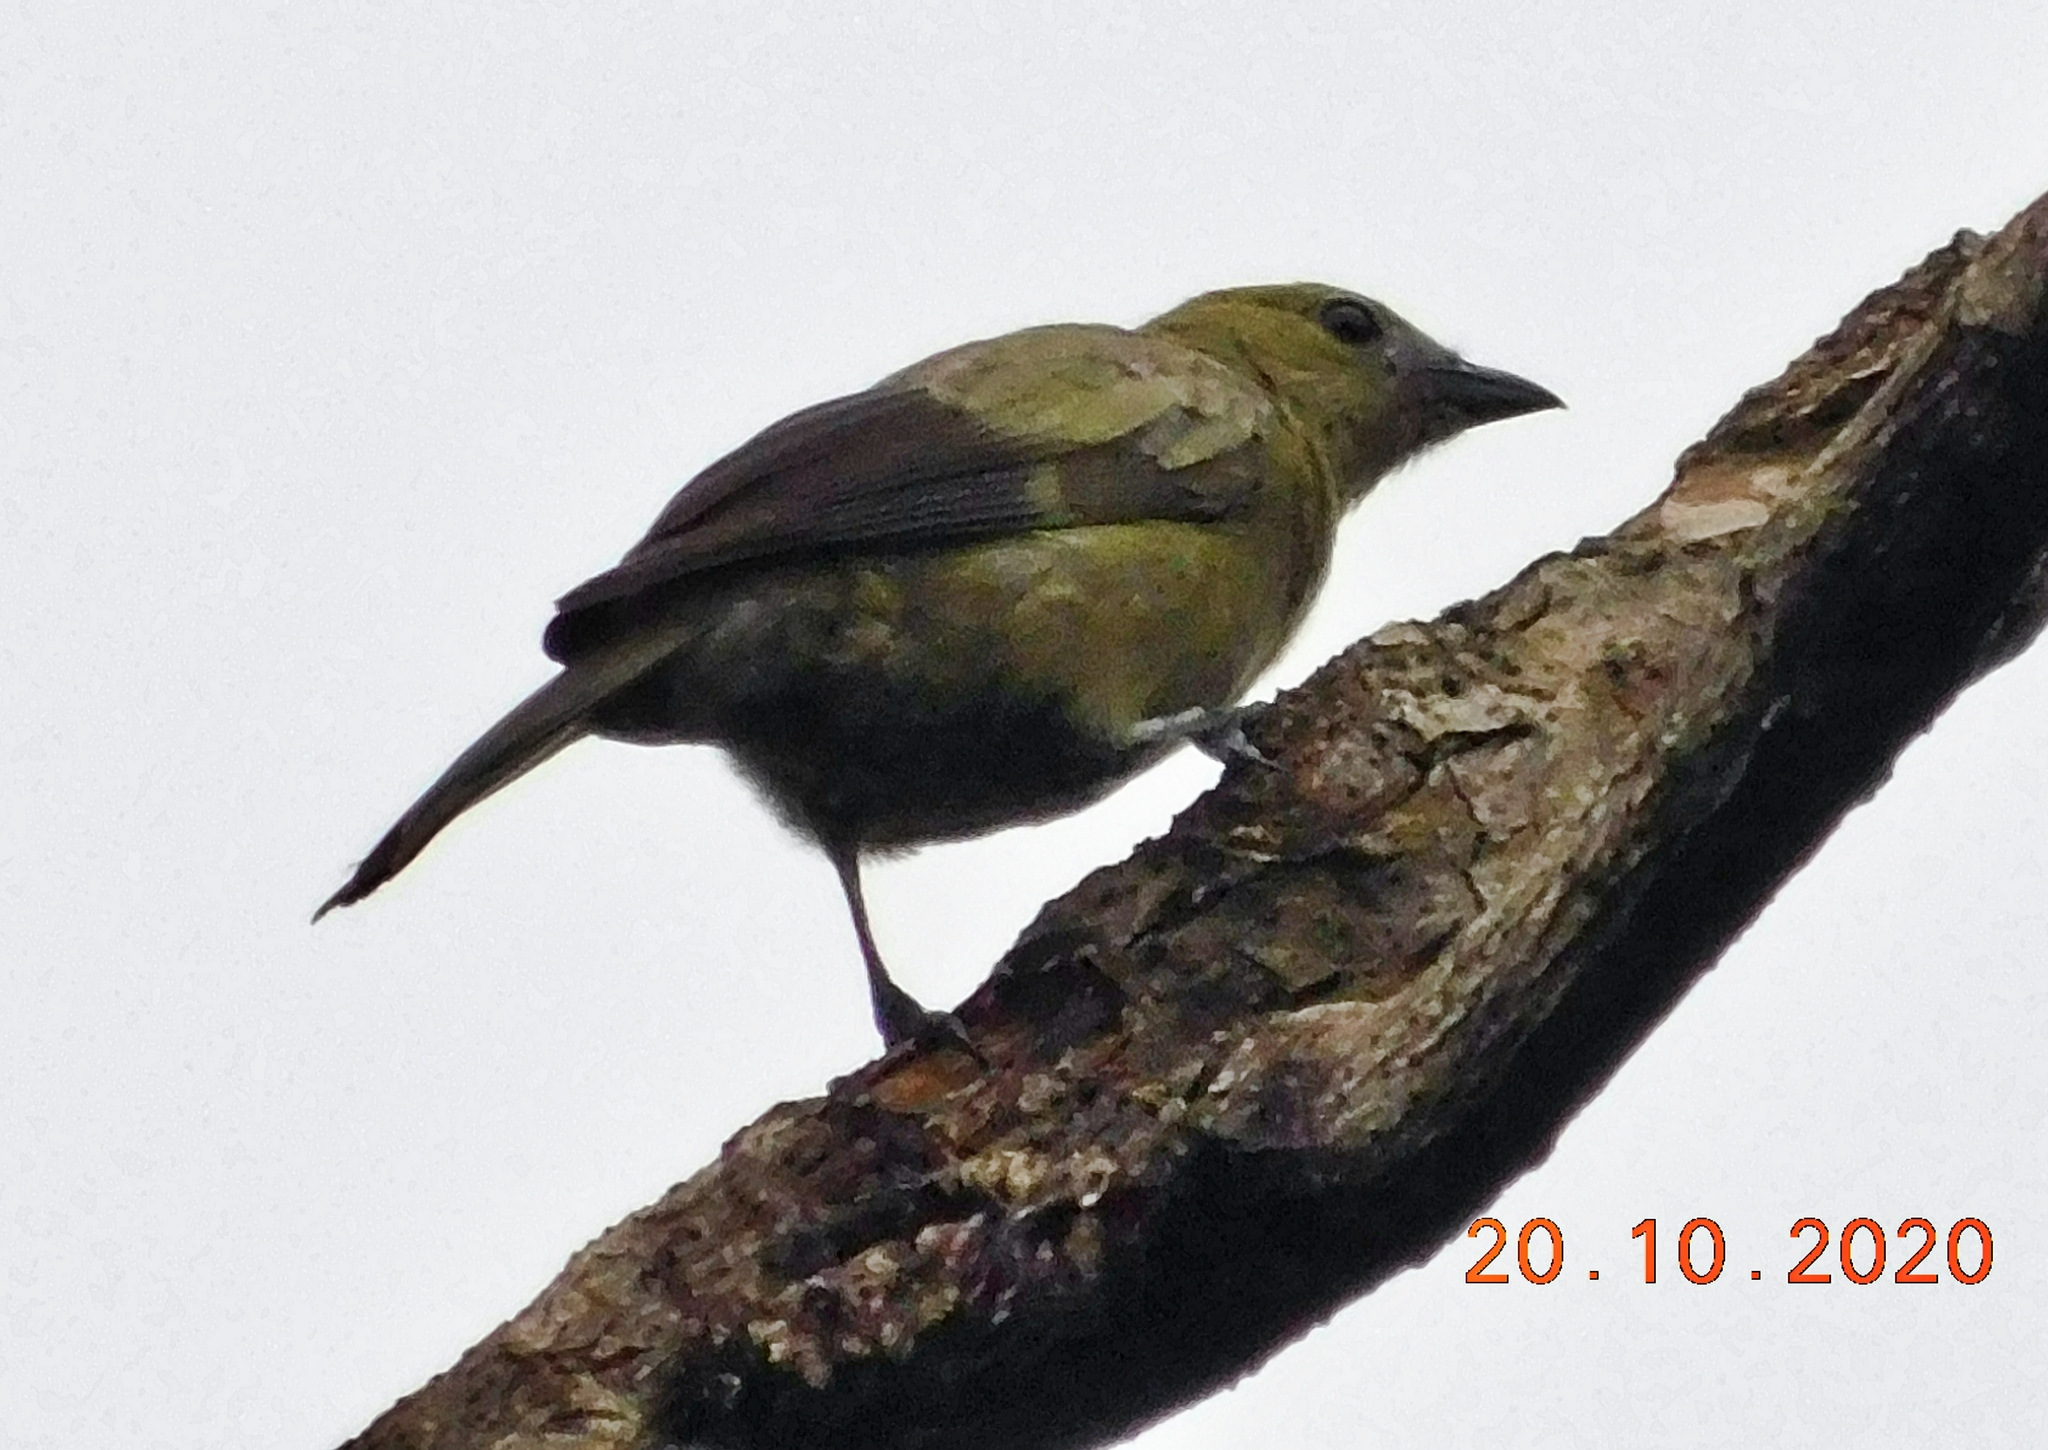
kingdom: Animalia
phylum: Chordata
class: Aves
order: Passeriformes
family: Thraupidae
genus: Thraupis
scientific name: Thraupis palmarum
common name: Palm tanager
